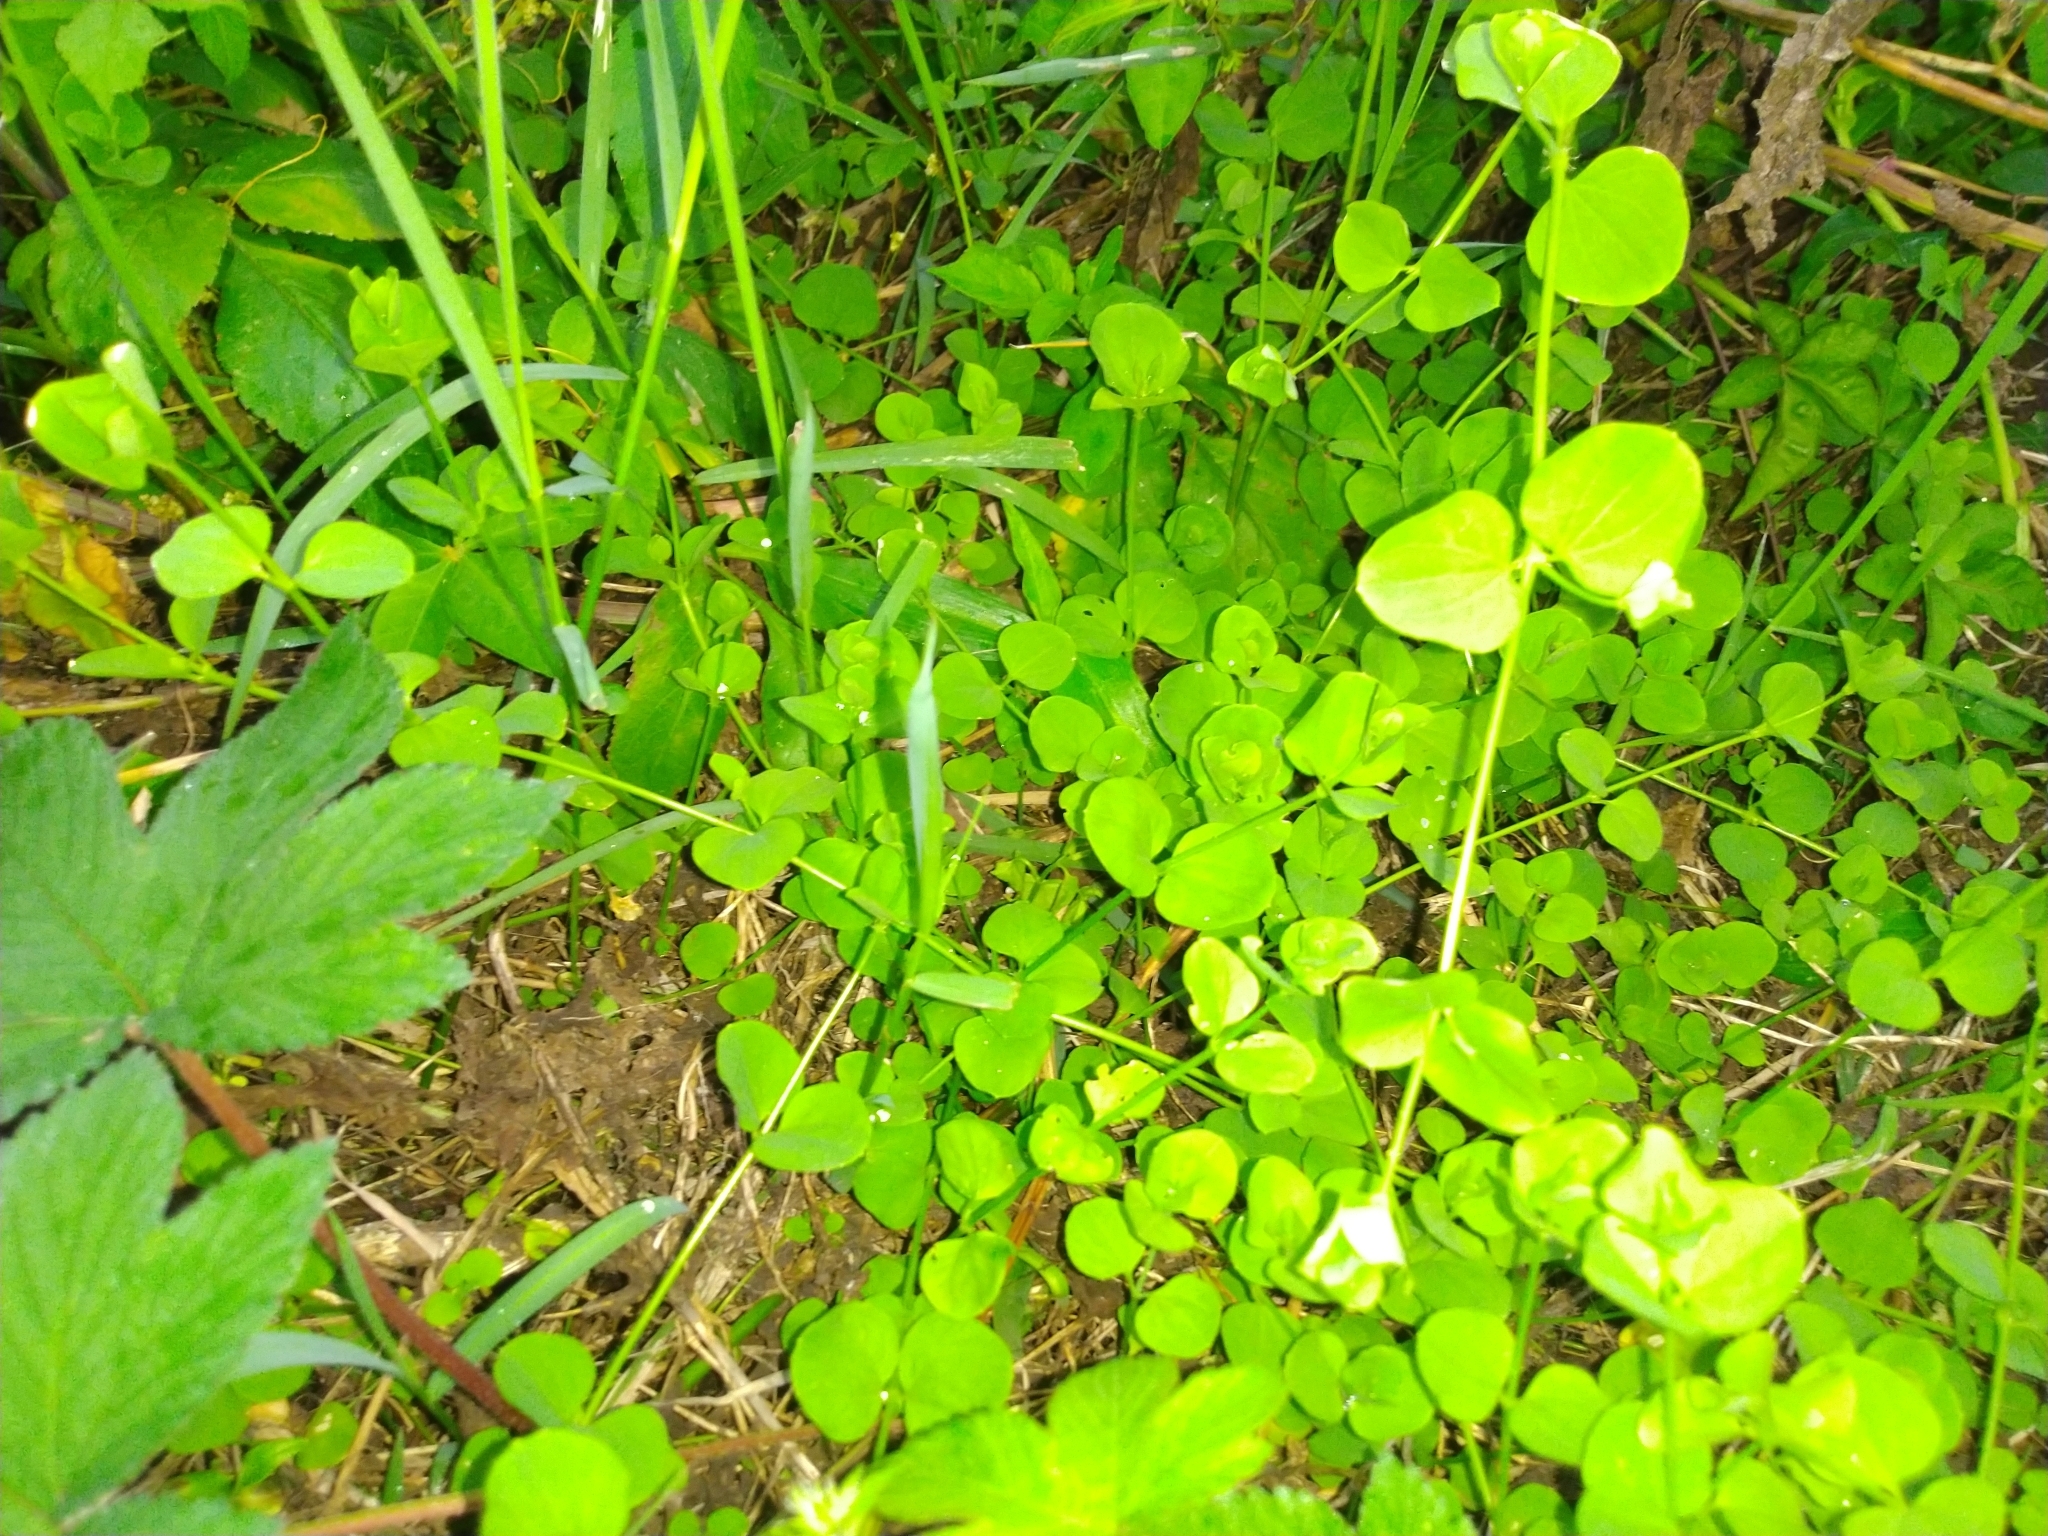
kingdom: Plantae
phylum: Tracheophyta
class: Magnoliopsida
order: Caryophyllales
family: Caryophyllaceae
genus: Drymaria
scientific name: Drymaria cordata
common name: Whitesnow
